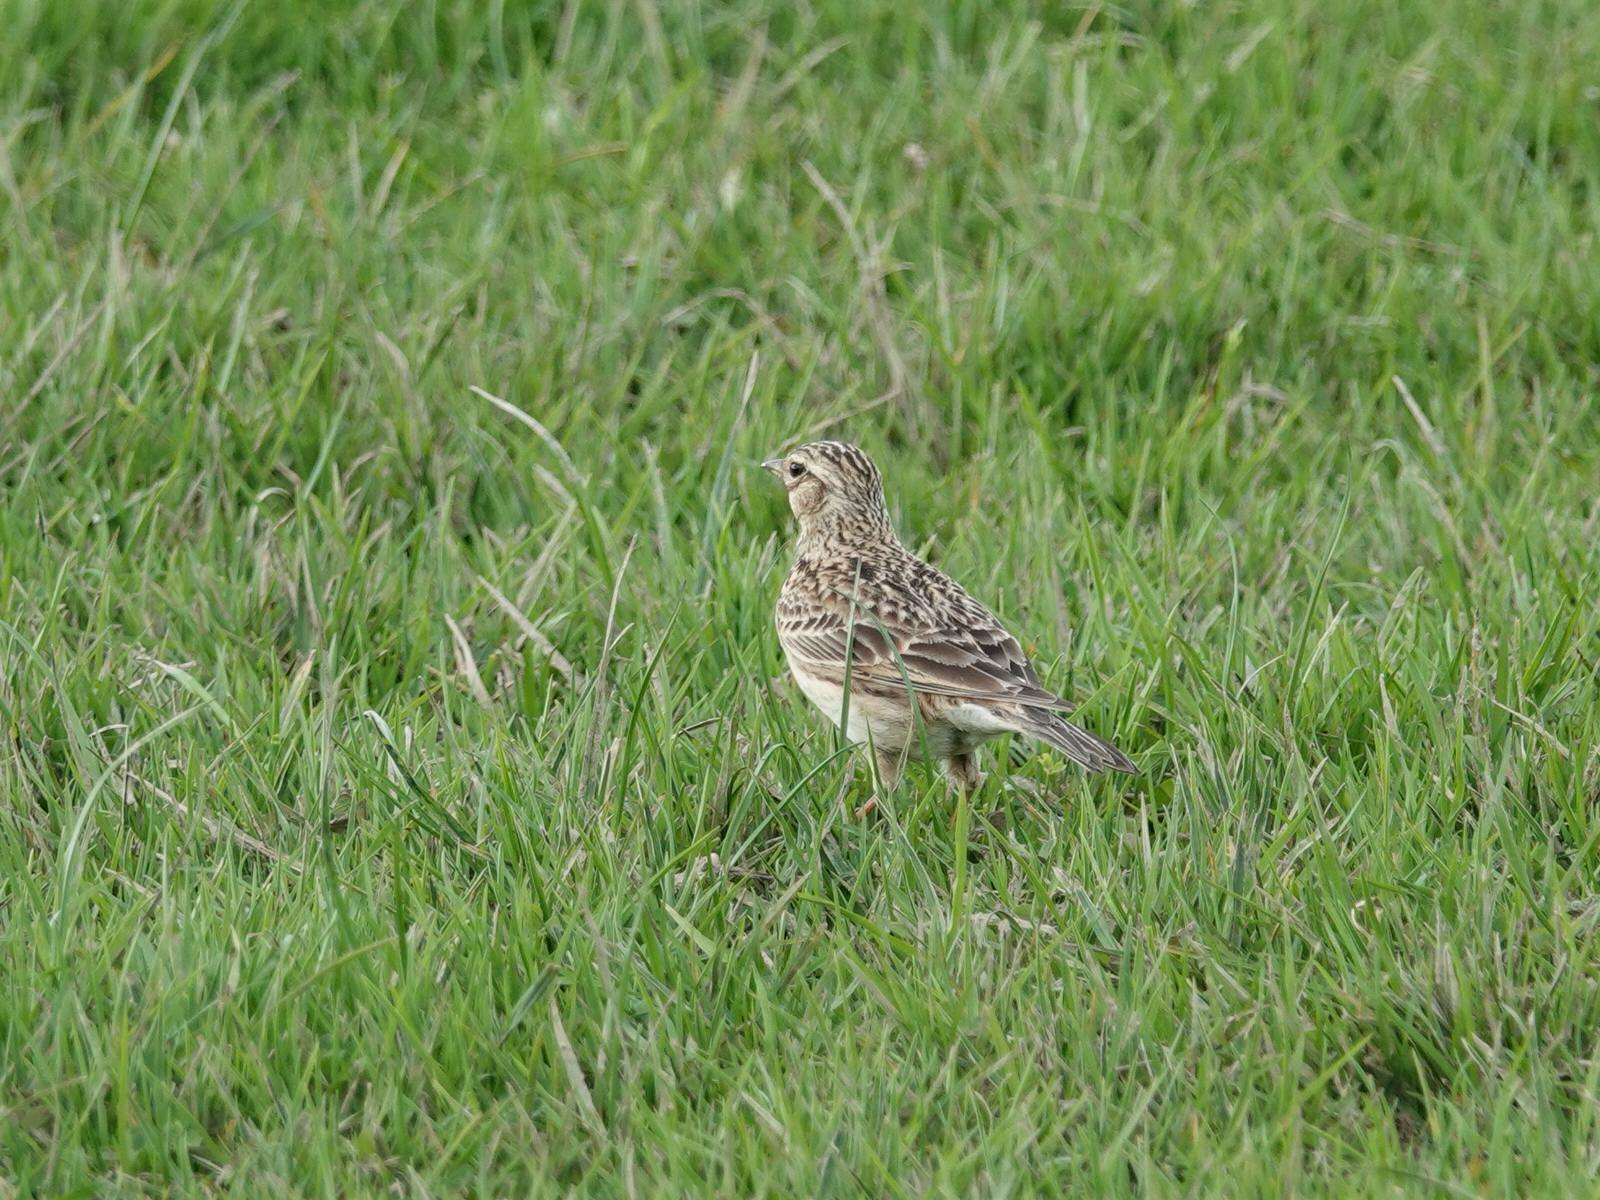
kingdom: Animalia
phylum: Chordata
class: Aves
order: Passeriformes
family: Alaudidae
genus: Alauda
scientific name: Alauda arvensis
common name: Eurasian skylark
